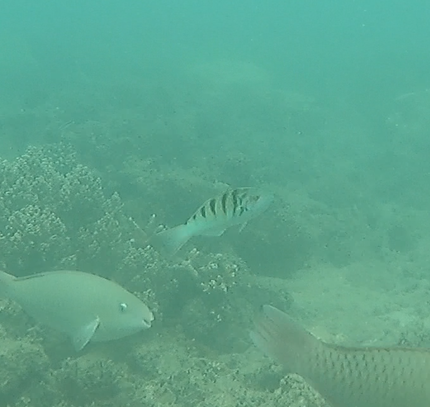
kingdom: Animalia
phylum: Chordata
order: Perciformes
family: Labridae
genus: Thalassoma
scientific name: Thalassoma hardwicke
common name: Sixbar wrasse
